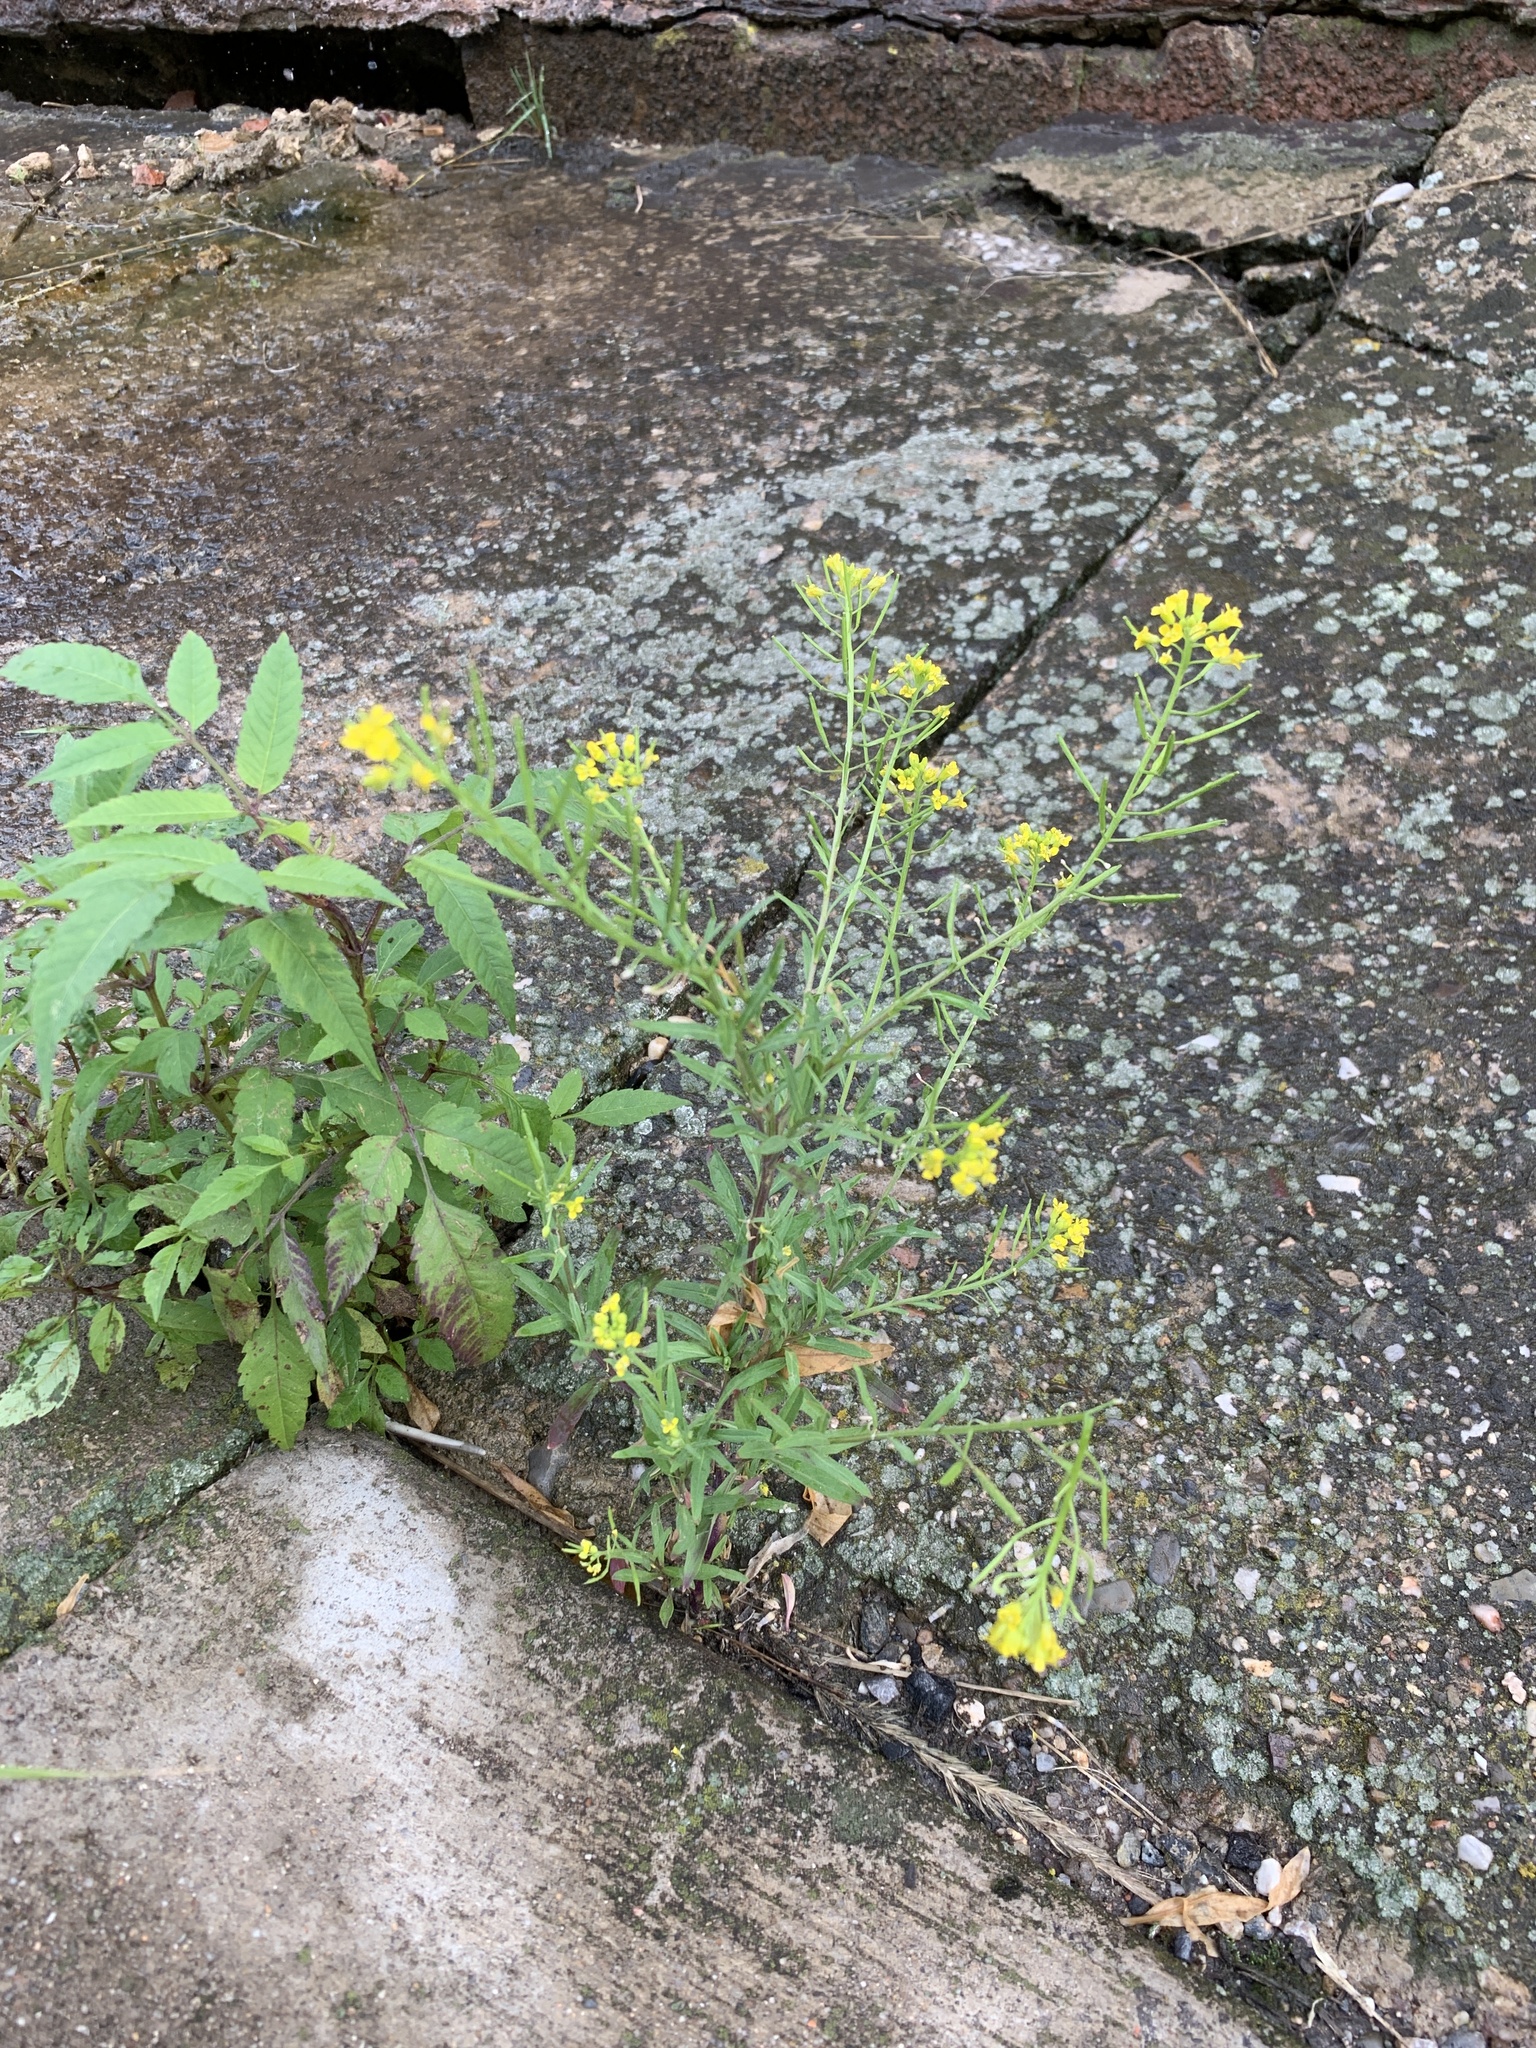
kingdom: Plantae
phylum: Tracheophyta
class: Magnoliopsida
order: Brassicales
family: Brassicaceae
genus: Erysimum
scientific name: Erysimum cheiranthoides
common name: Treacle mustard
